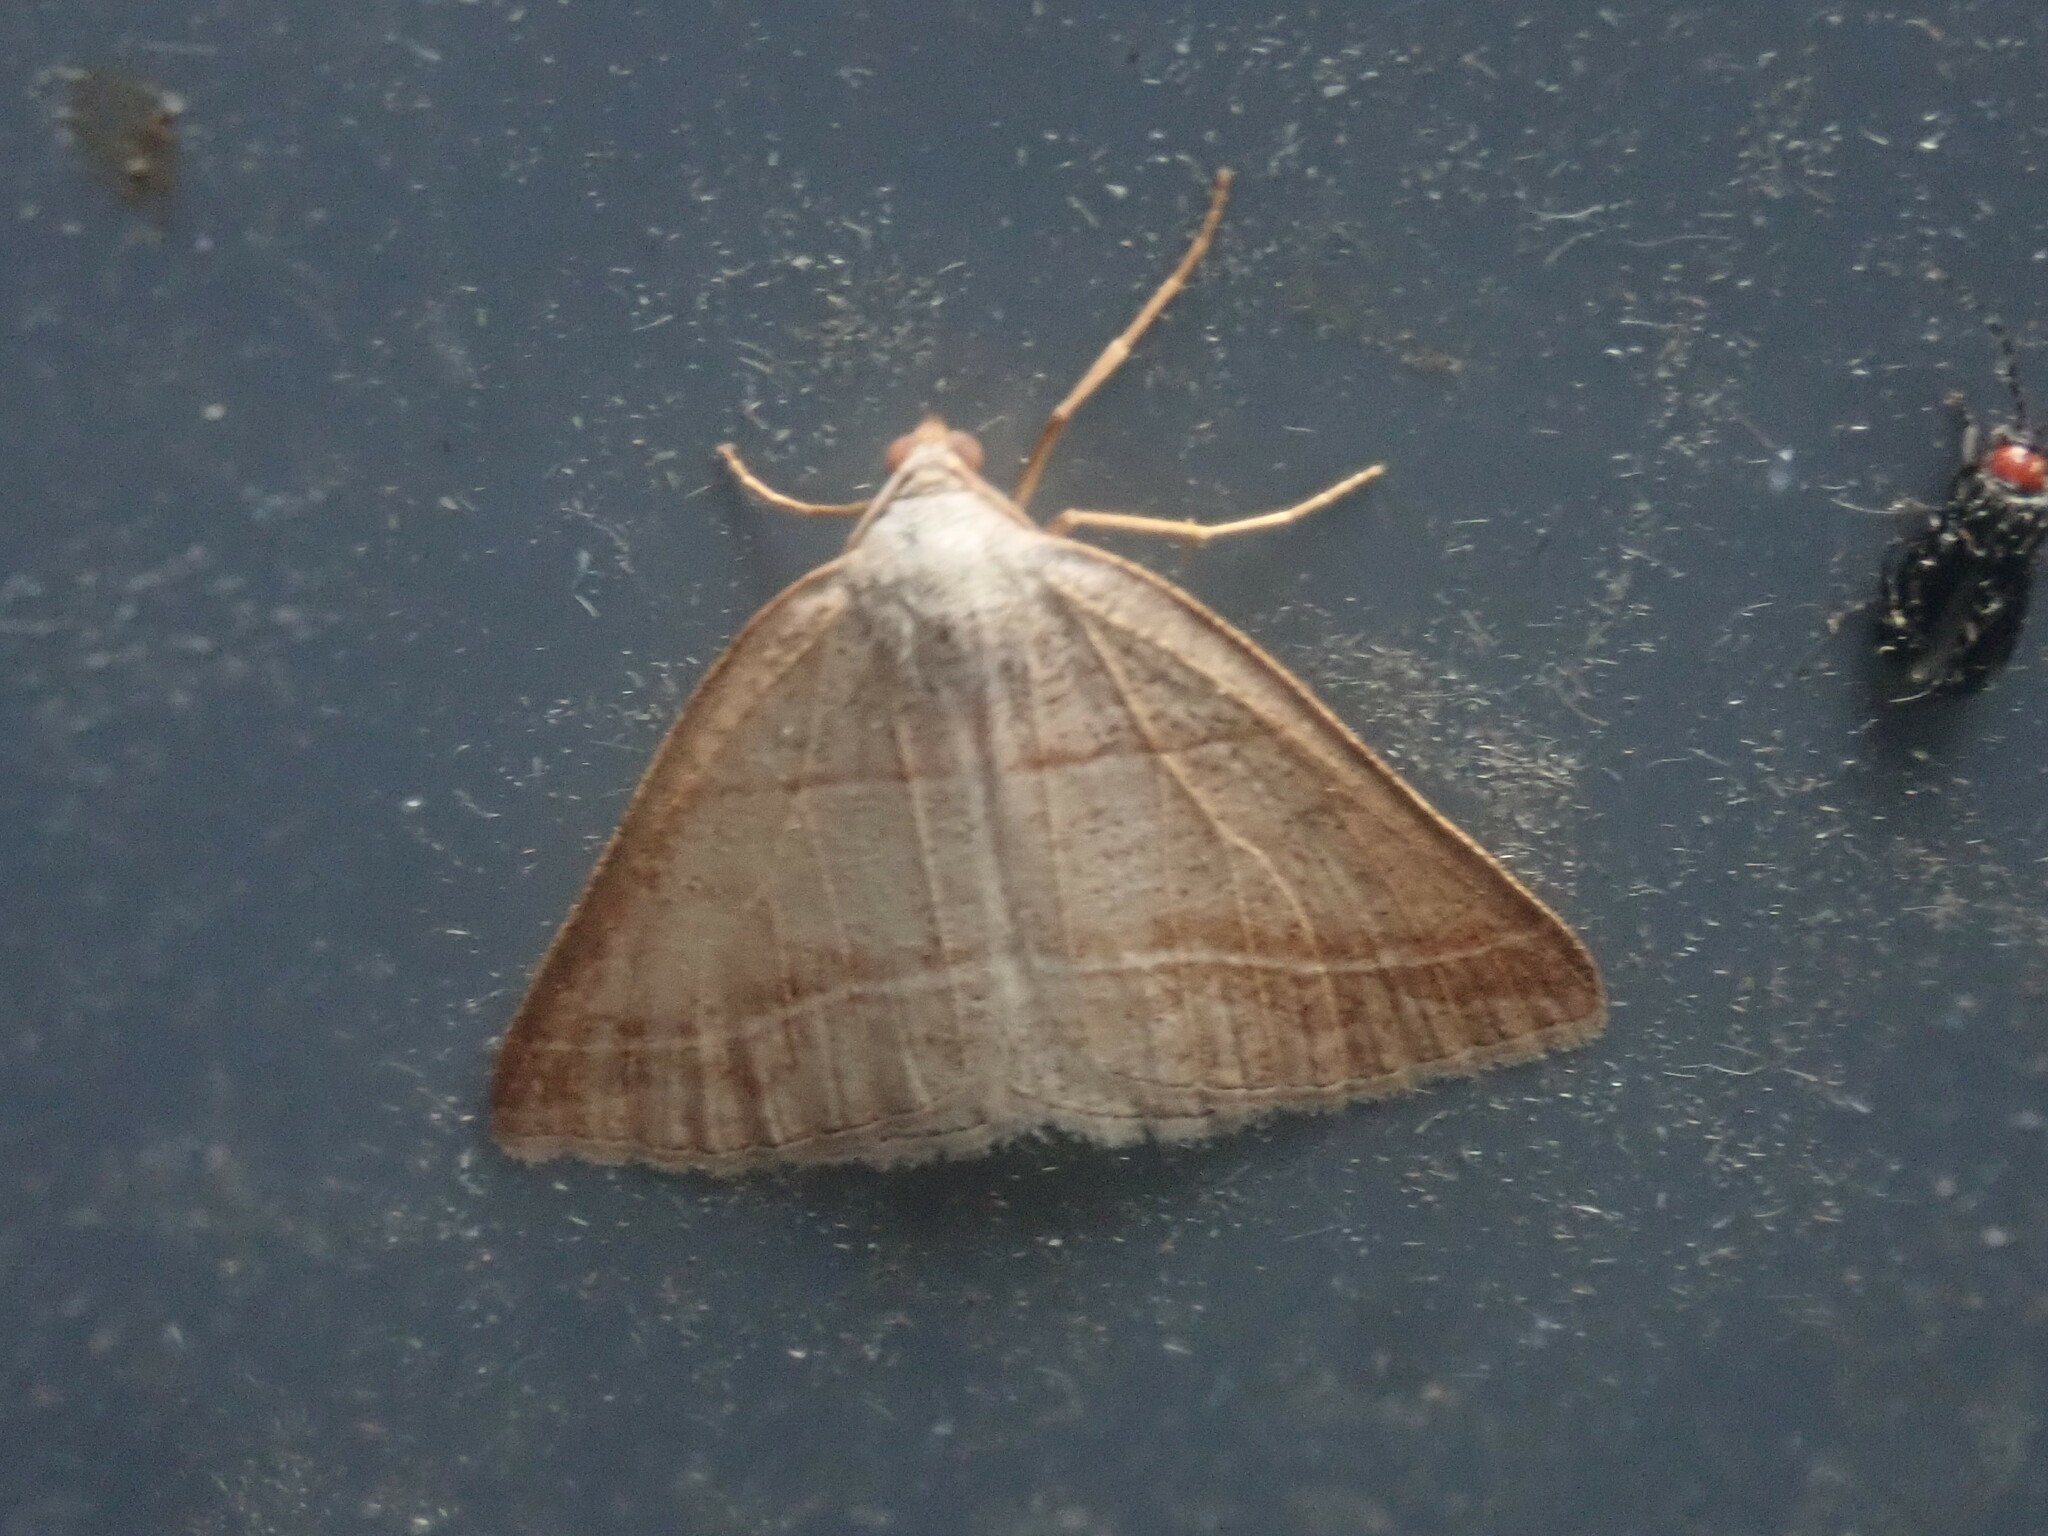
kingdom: Animalia
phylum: Arthropoda
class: Insecta
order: Lepidoptera
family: Pterophoridae
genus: Pterophorus
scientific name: Pterophorus Petrophora subaequaria
